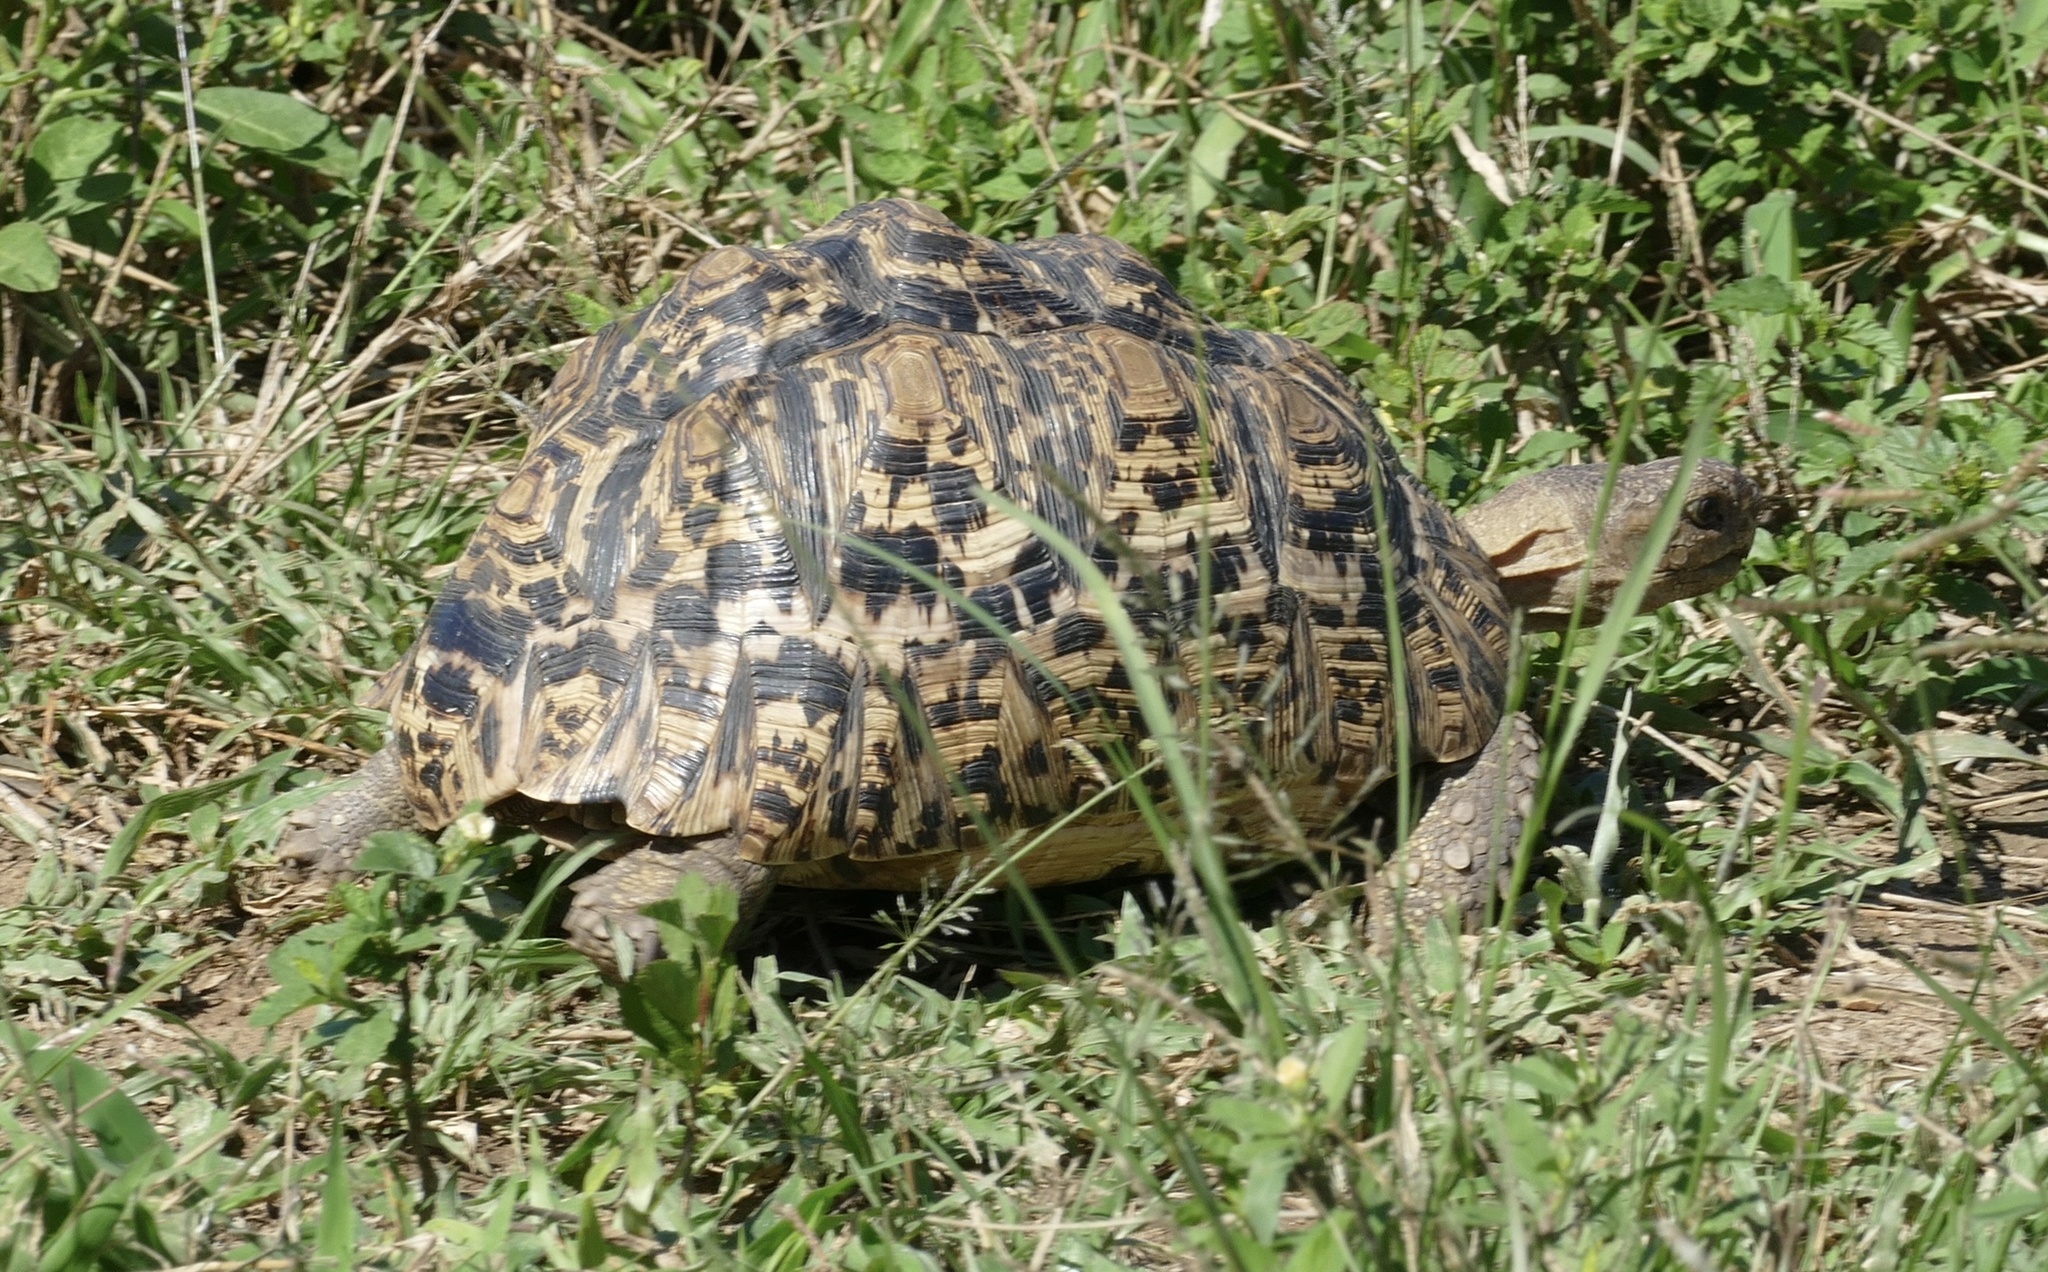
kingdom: Animalia
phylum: Chordata
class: Testudines
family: Testudinidae
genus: Stigmochelys
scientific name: Stigmochelys pardalis
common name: Leopard tortoise
